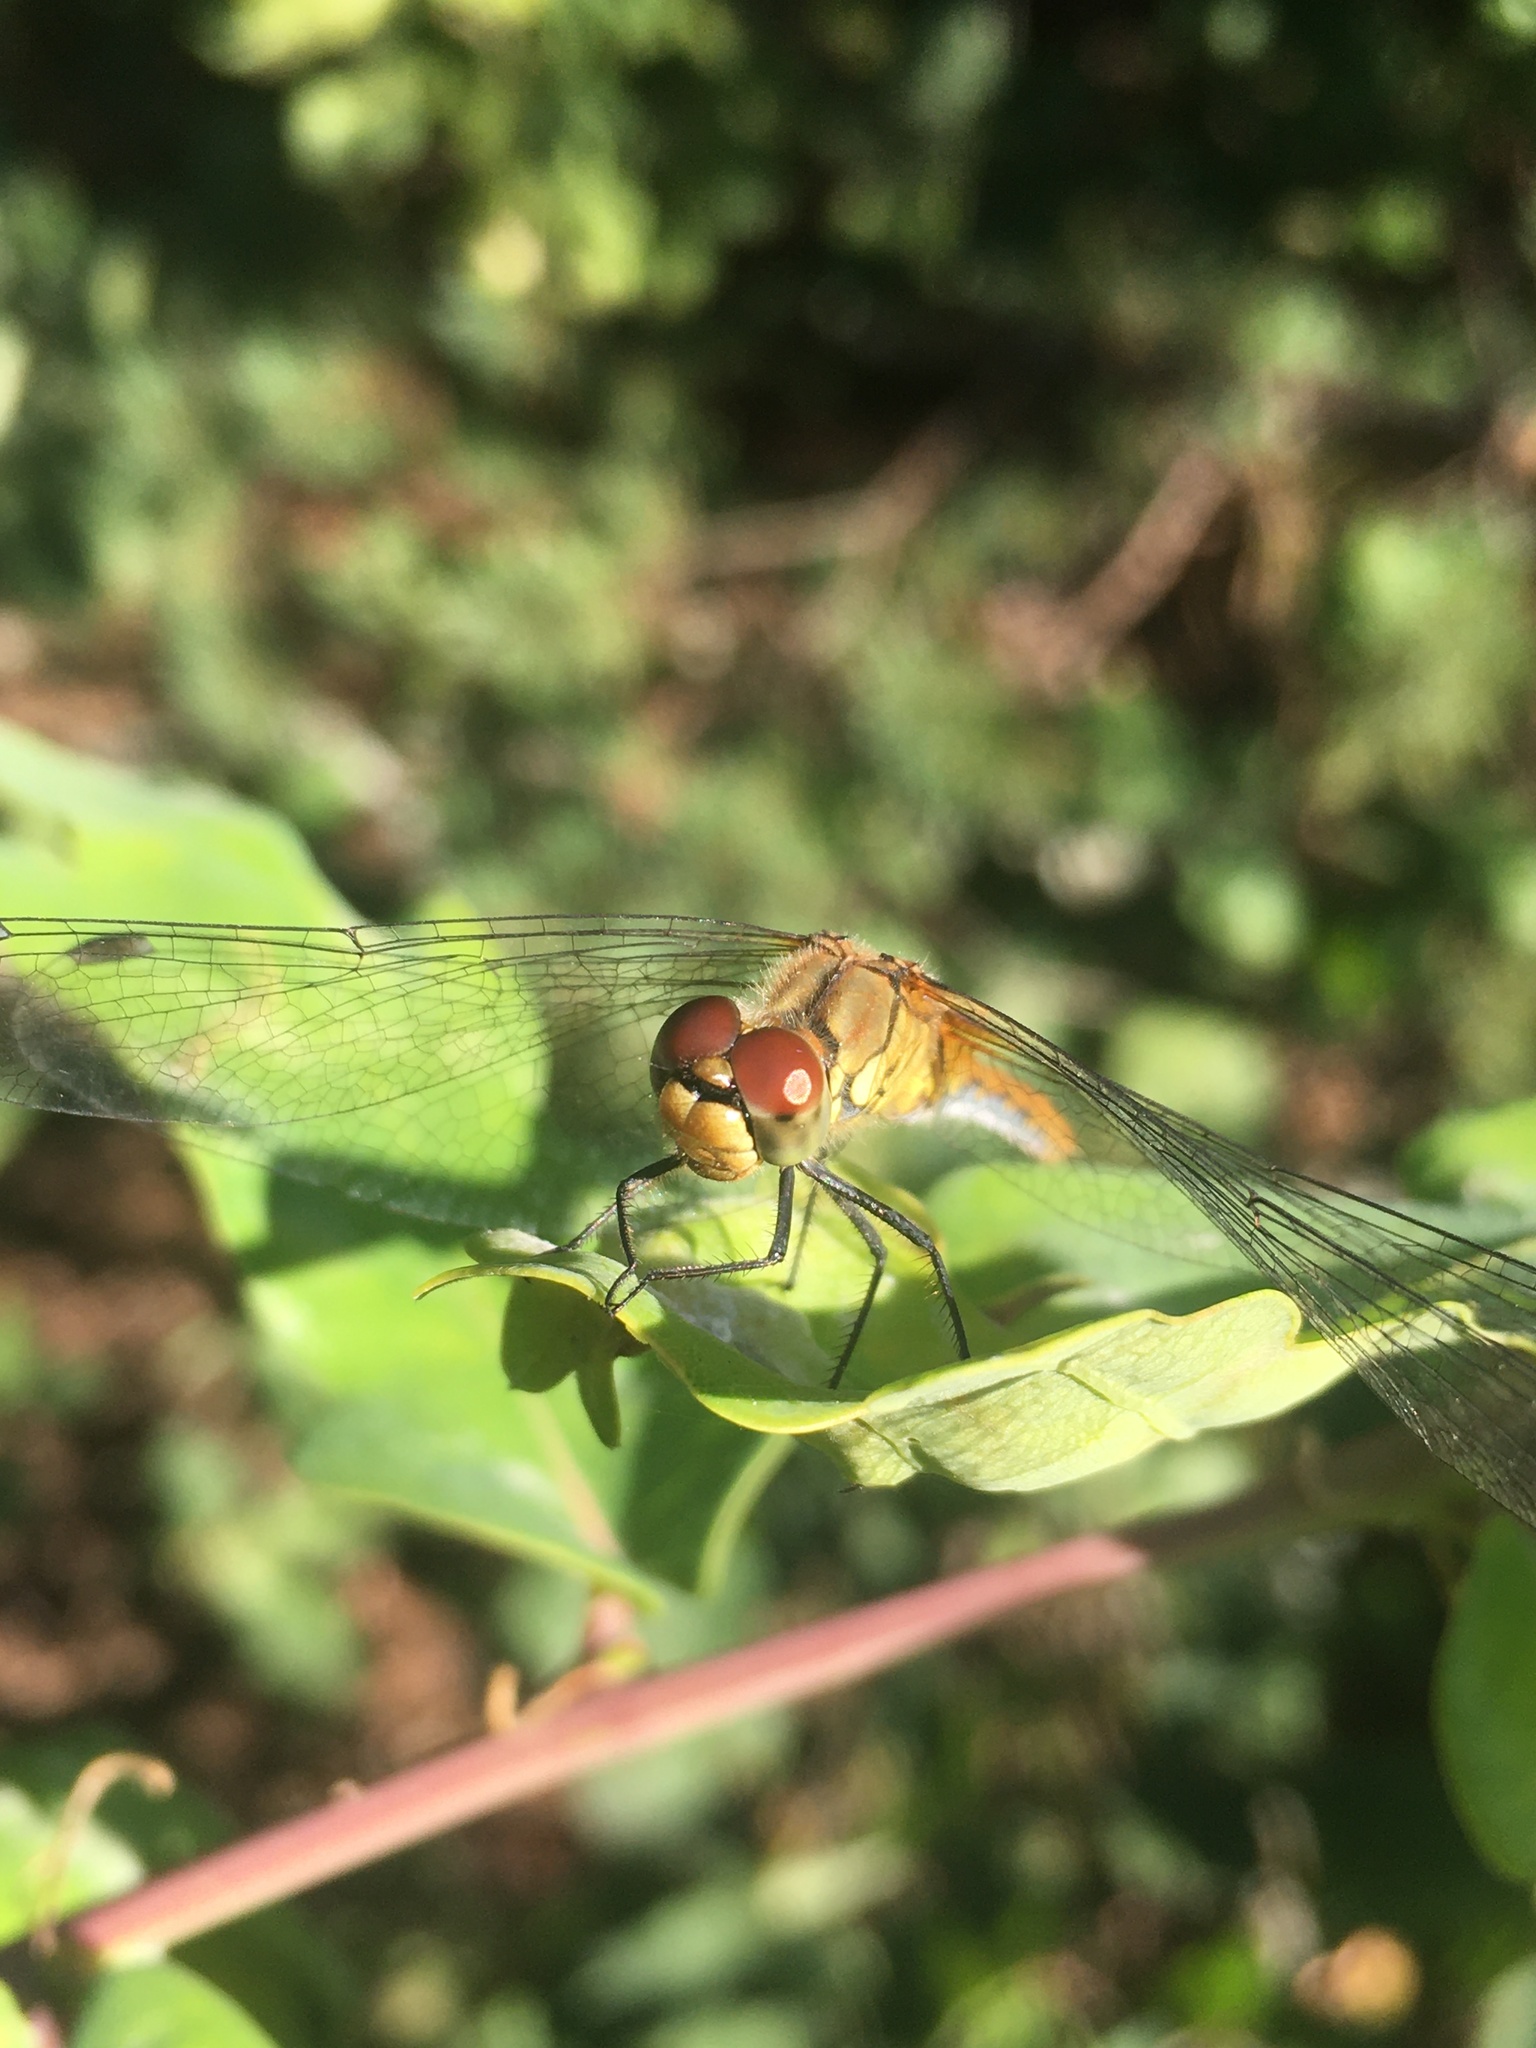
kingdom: Animalia
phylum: Arthropoda
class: Insecta
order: Odonata
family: Libellulidae
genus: Sympetrum
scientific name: Sympetrum sanguineum
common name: Ruddy darter
